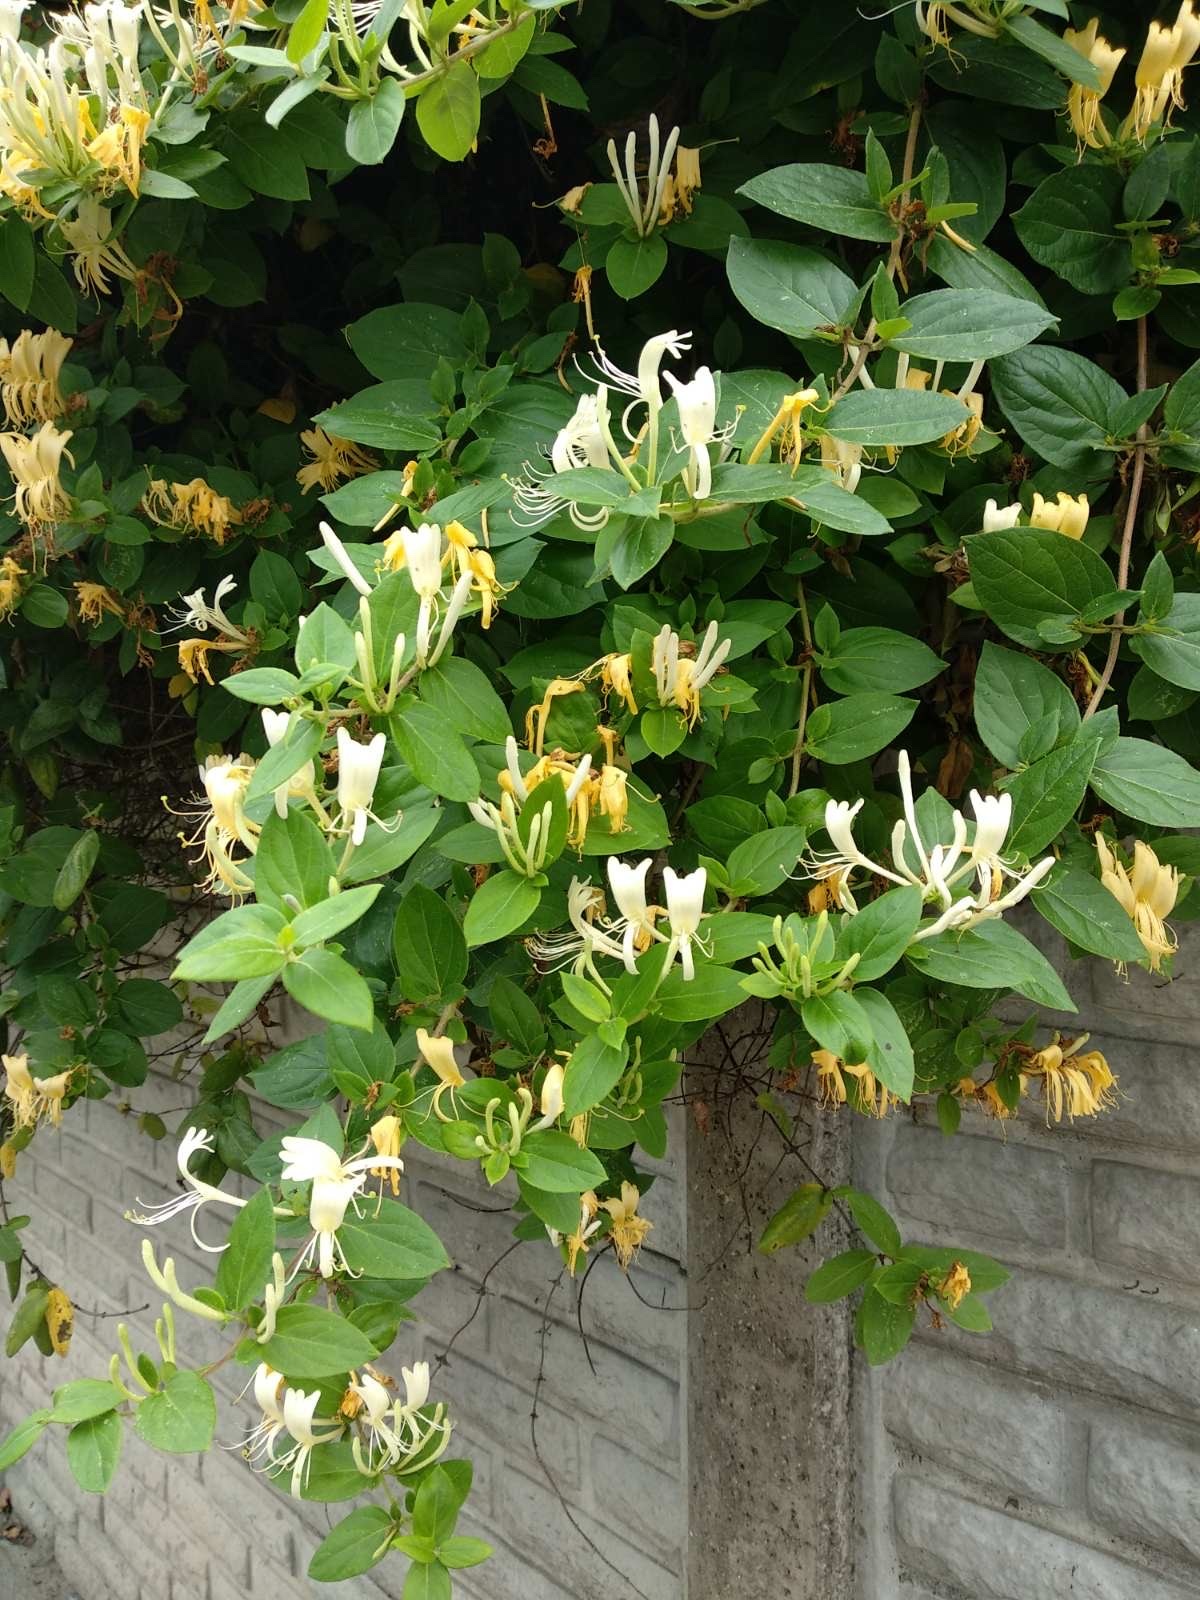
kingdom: Plantae
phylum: Tracheophyta
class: Magnoliopsida
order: Dipsacales
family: Caprifoliaceae
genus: Lonicera
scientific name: Lonicera japonica
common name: Japanese honeysuckle
